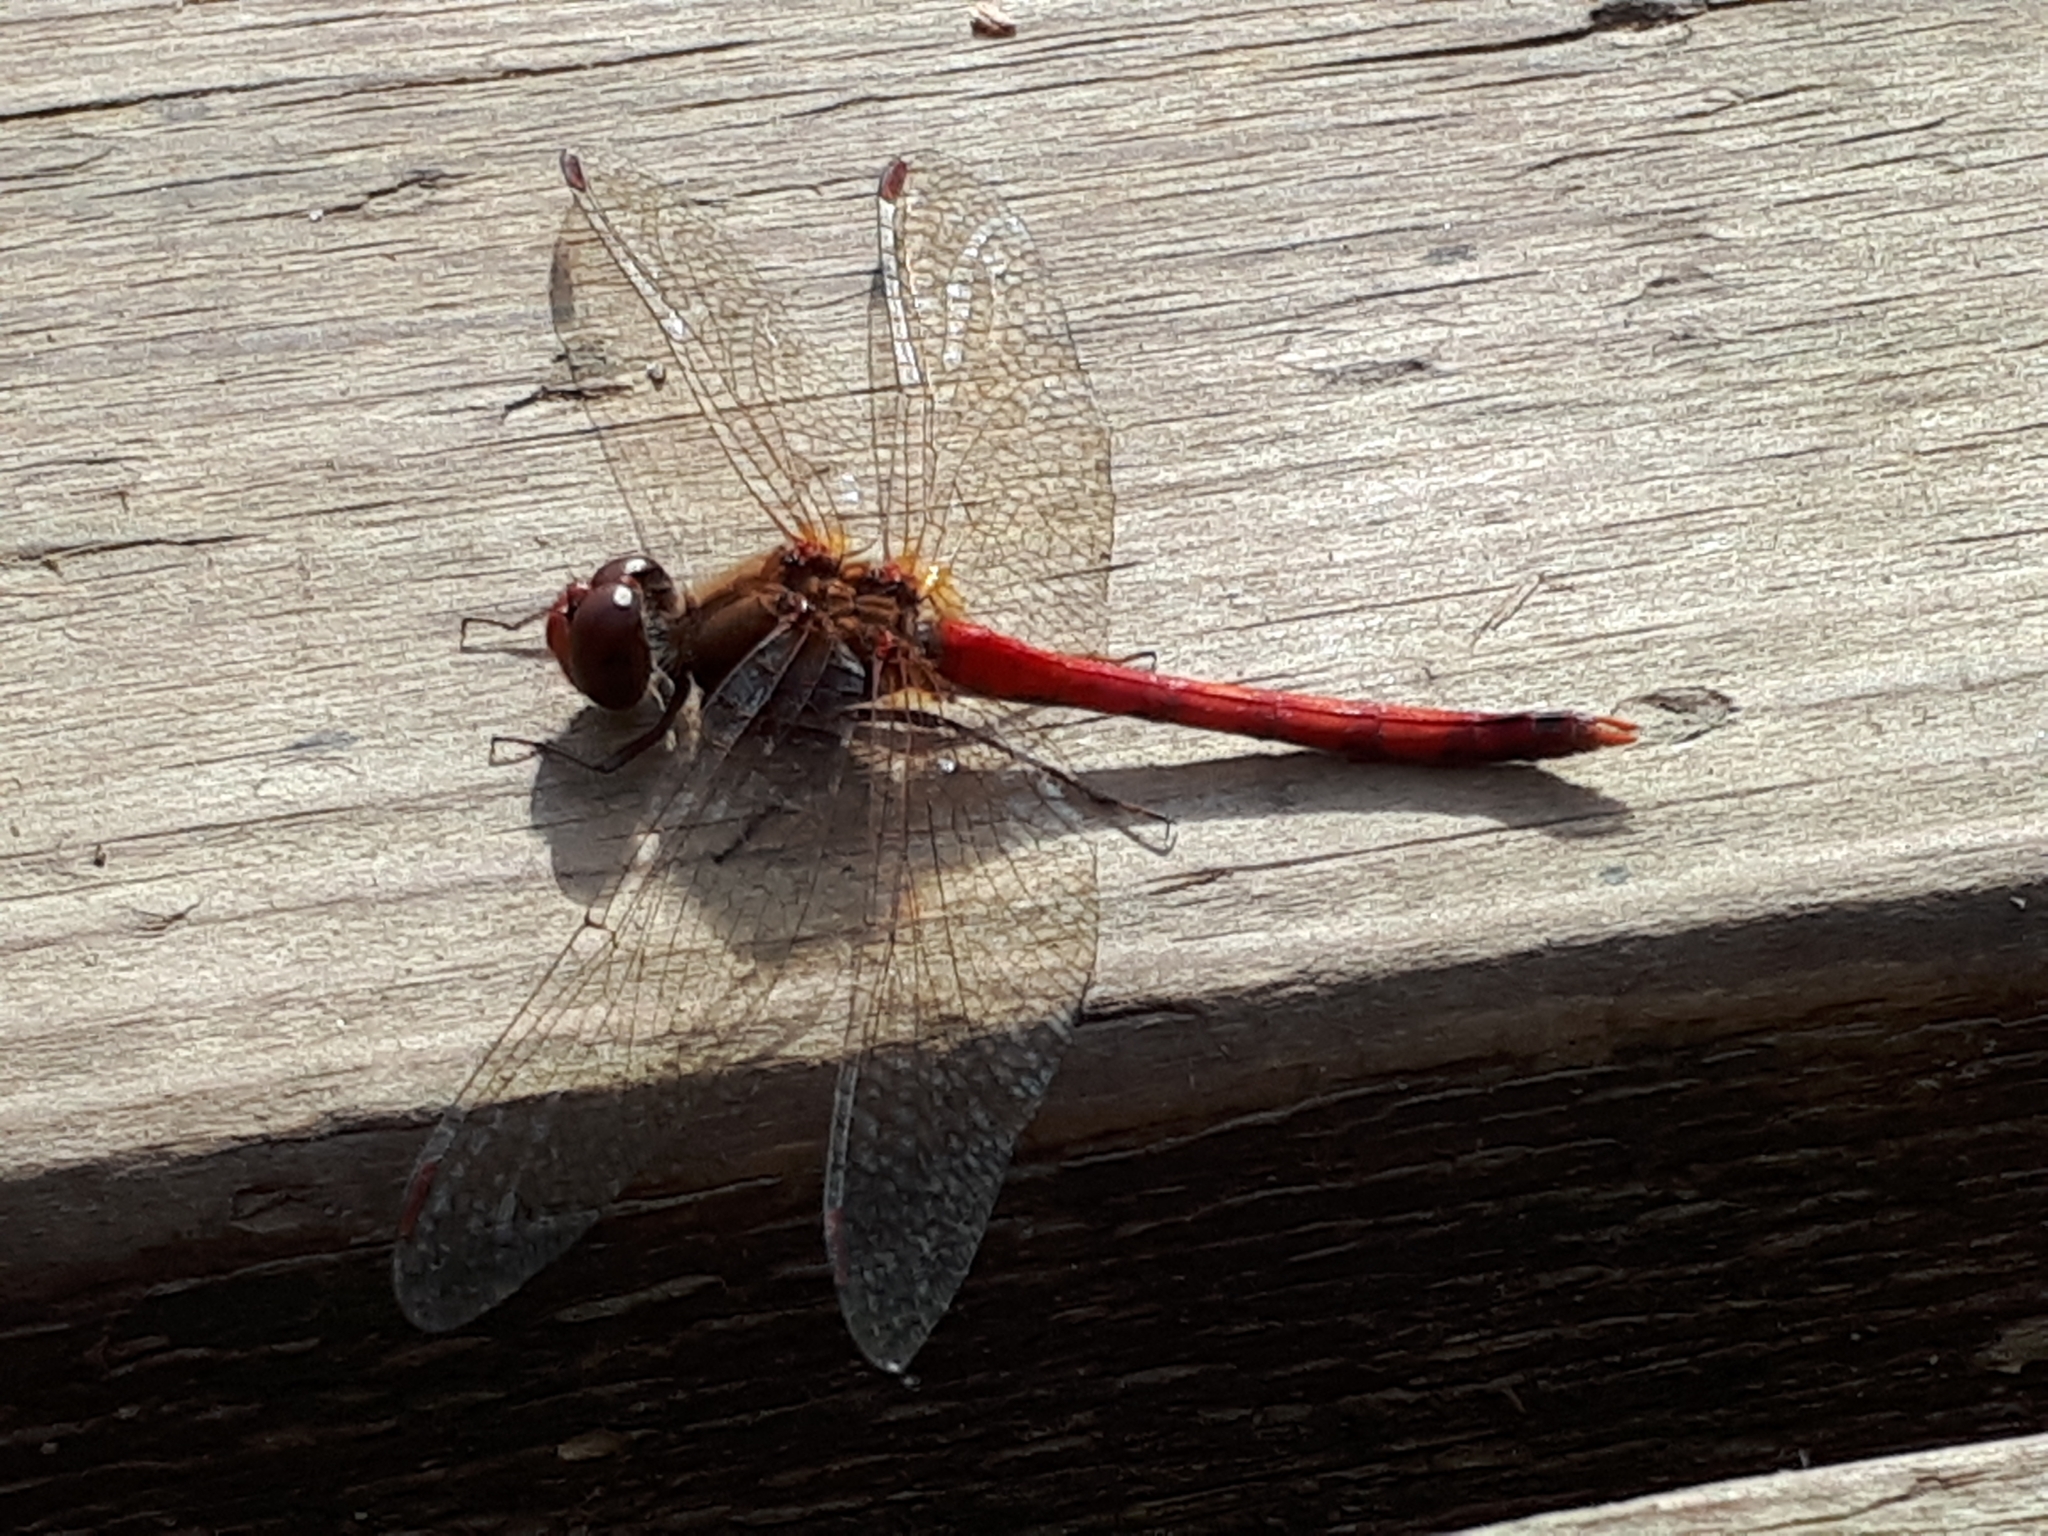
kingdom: Animalia
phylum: Arthropoda
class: Insecta
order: Odonata
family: Libellulidae
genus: Sympetrum
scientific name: Sympetrum vicinum
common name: Autumn meadowhawk
